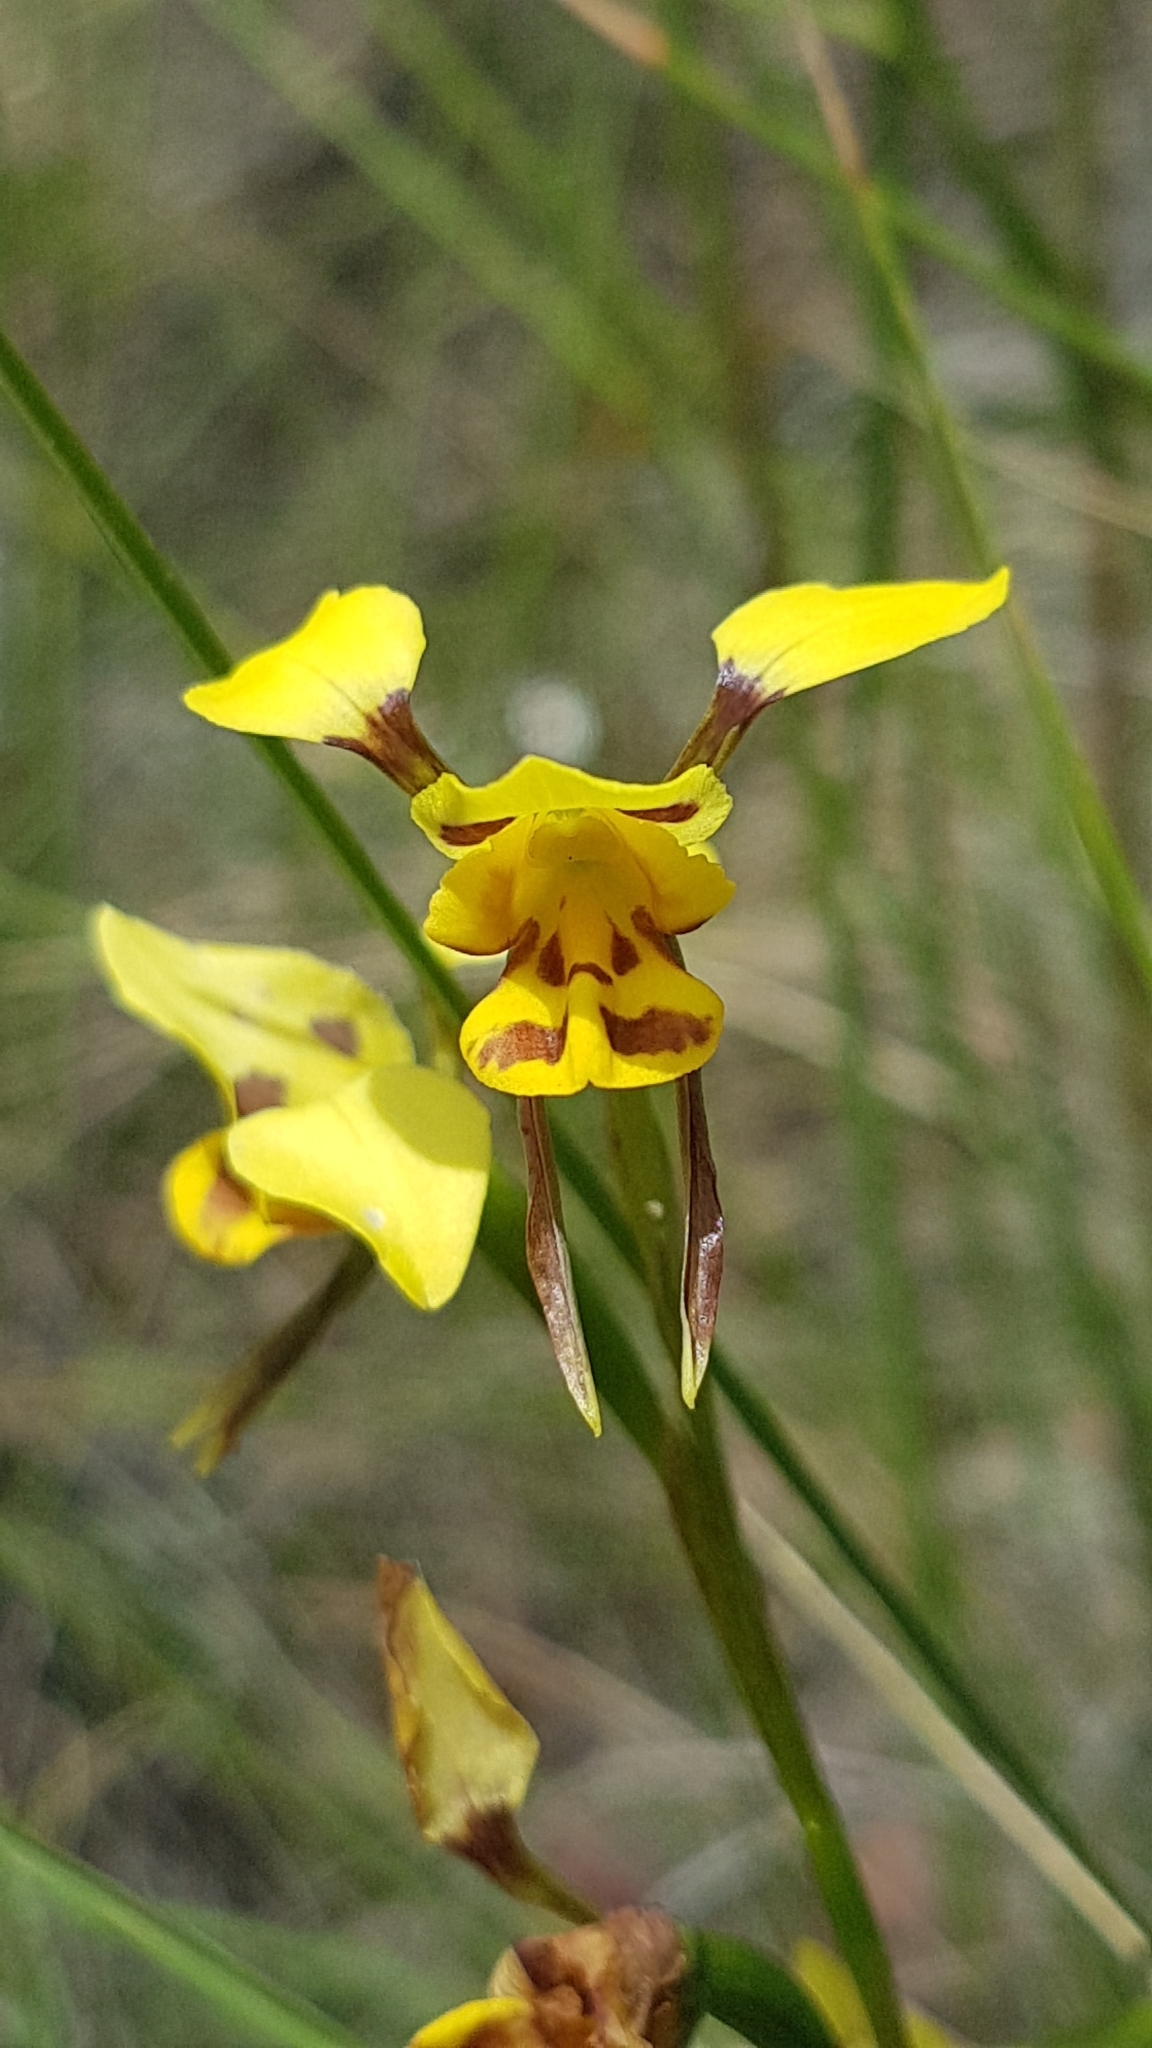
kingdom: Plantae
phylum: Tracheophyta
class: Liliopsida
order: Asparagales
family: Orchidaceae
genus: Diuris
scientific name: Diuris sulphurea
